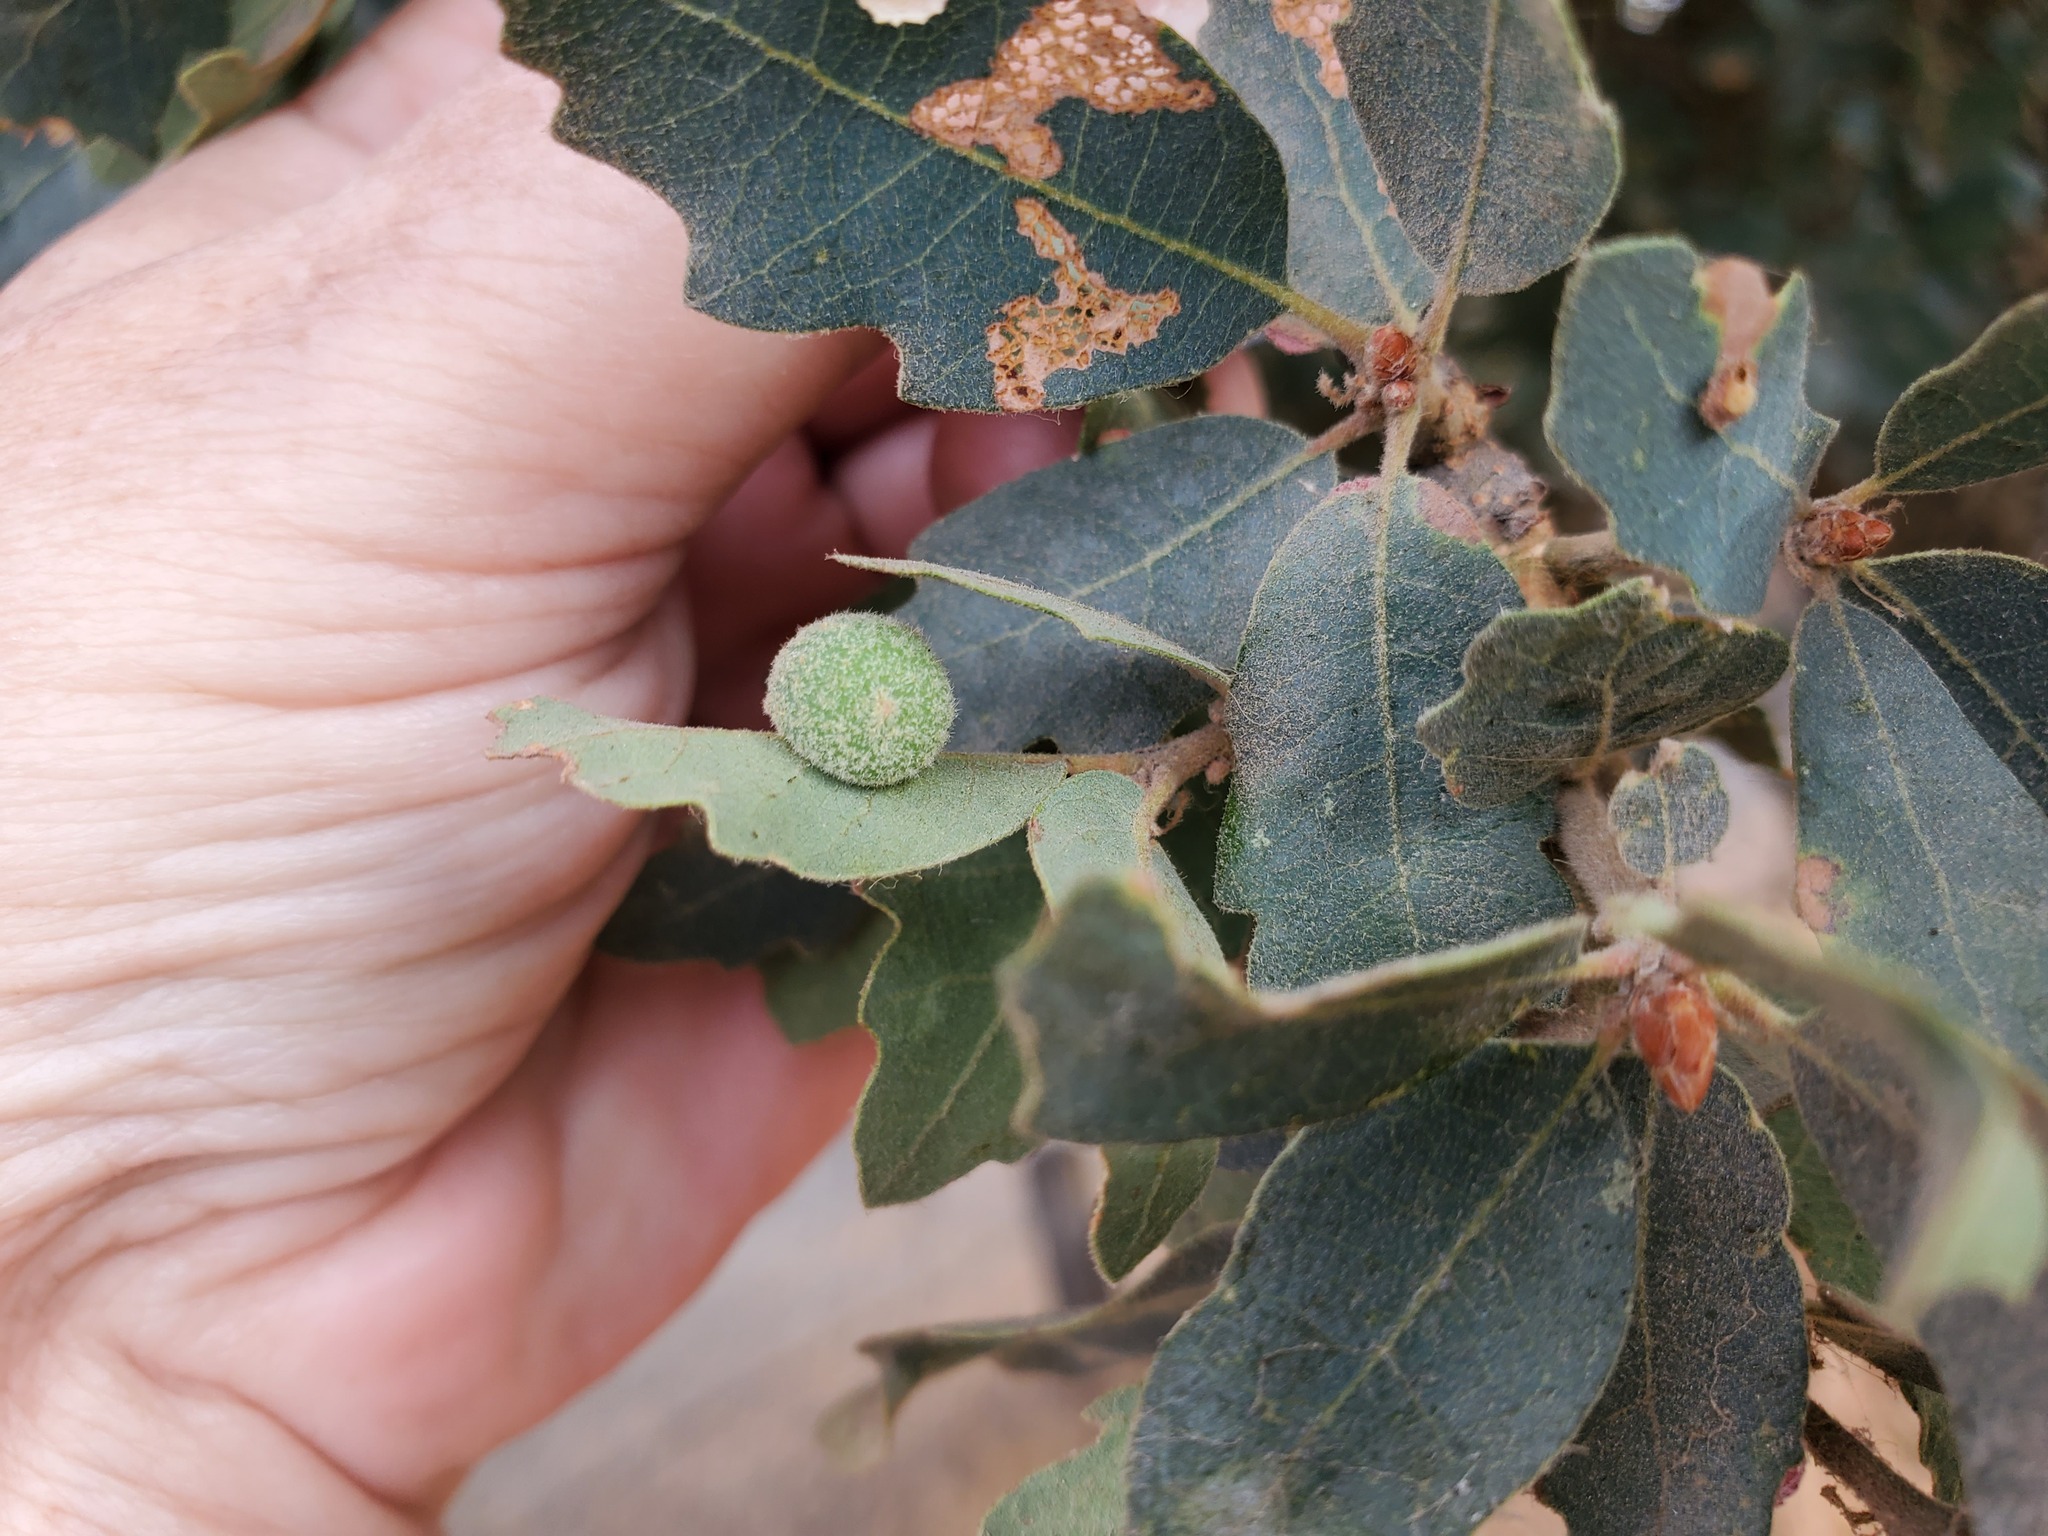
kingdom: Animalia
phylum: Arthropoda
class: Insecta
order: Hymenoptera
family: Cynipidae
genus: Cynips
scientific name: Cynips
